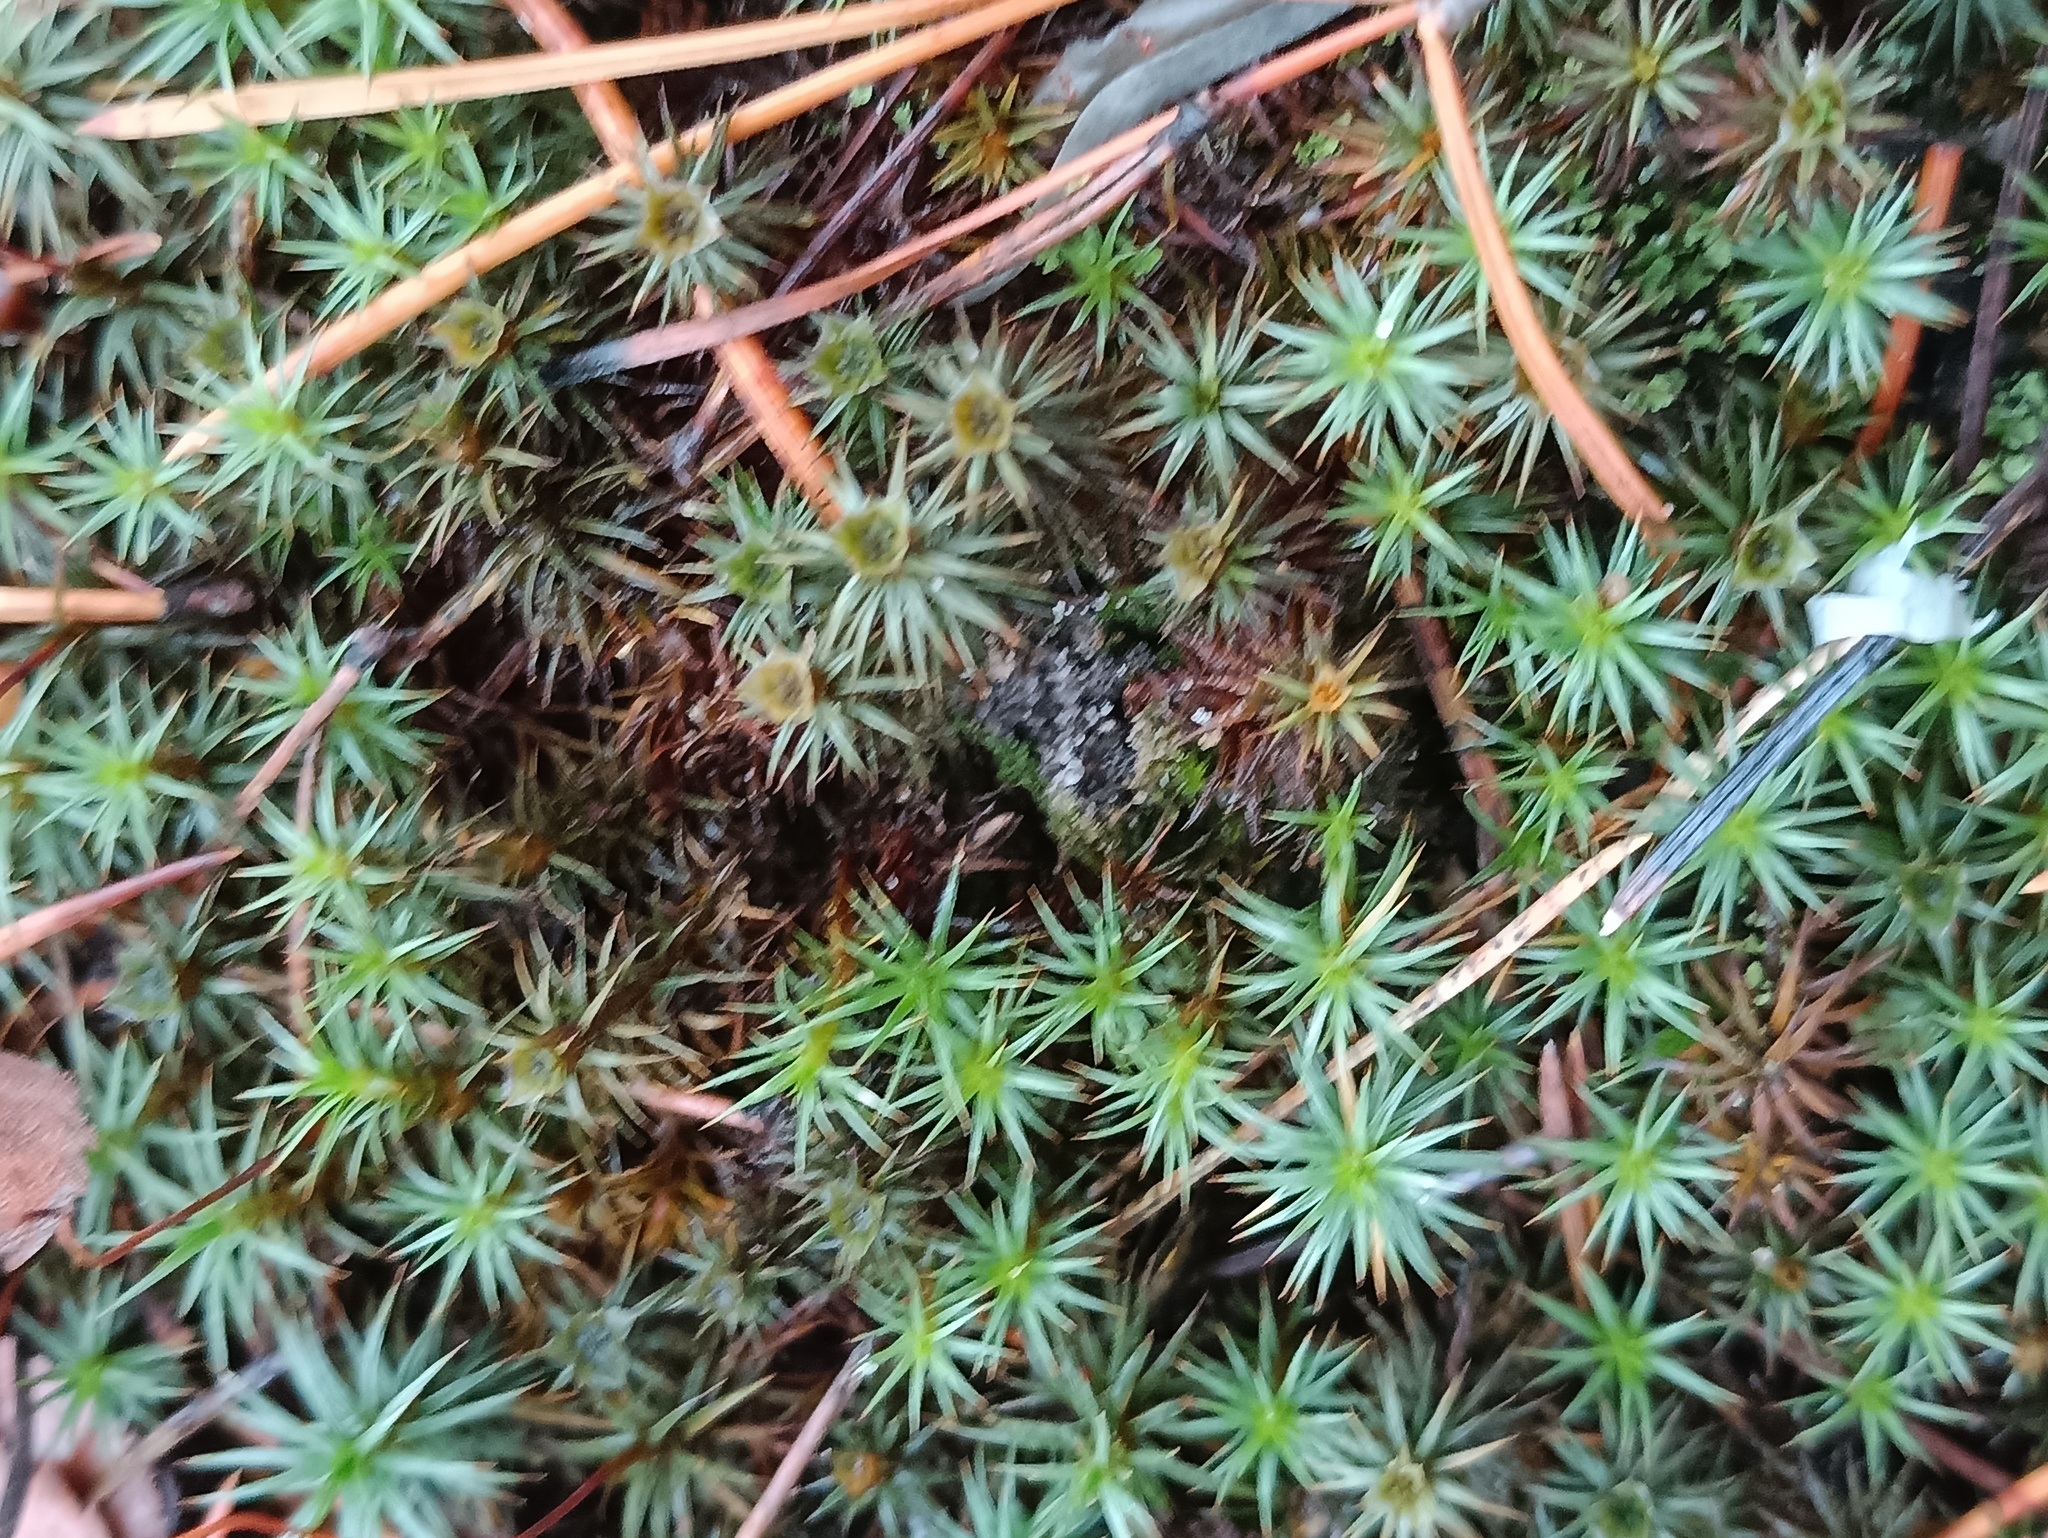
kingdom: Plantae
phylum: Bryophyta
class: Polytrichopsida
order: Polytrichales
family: Polytrichaceae
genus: Polytrichum
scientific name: Polytrichum juniperinum
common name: Juniper haircap moss
